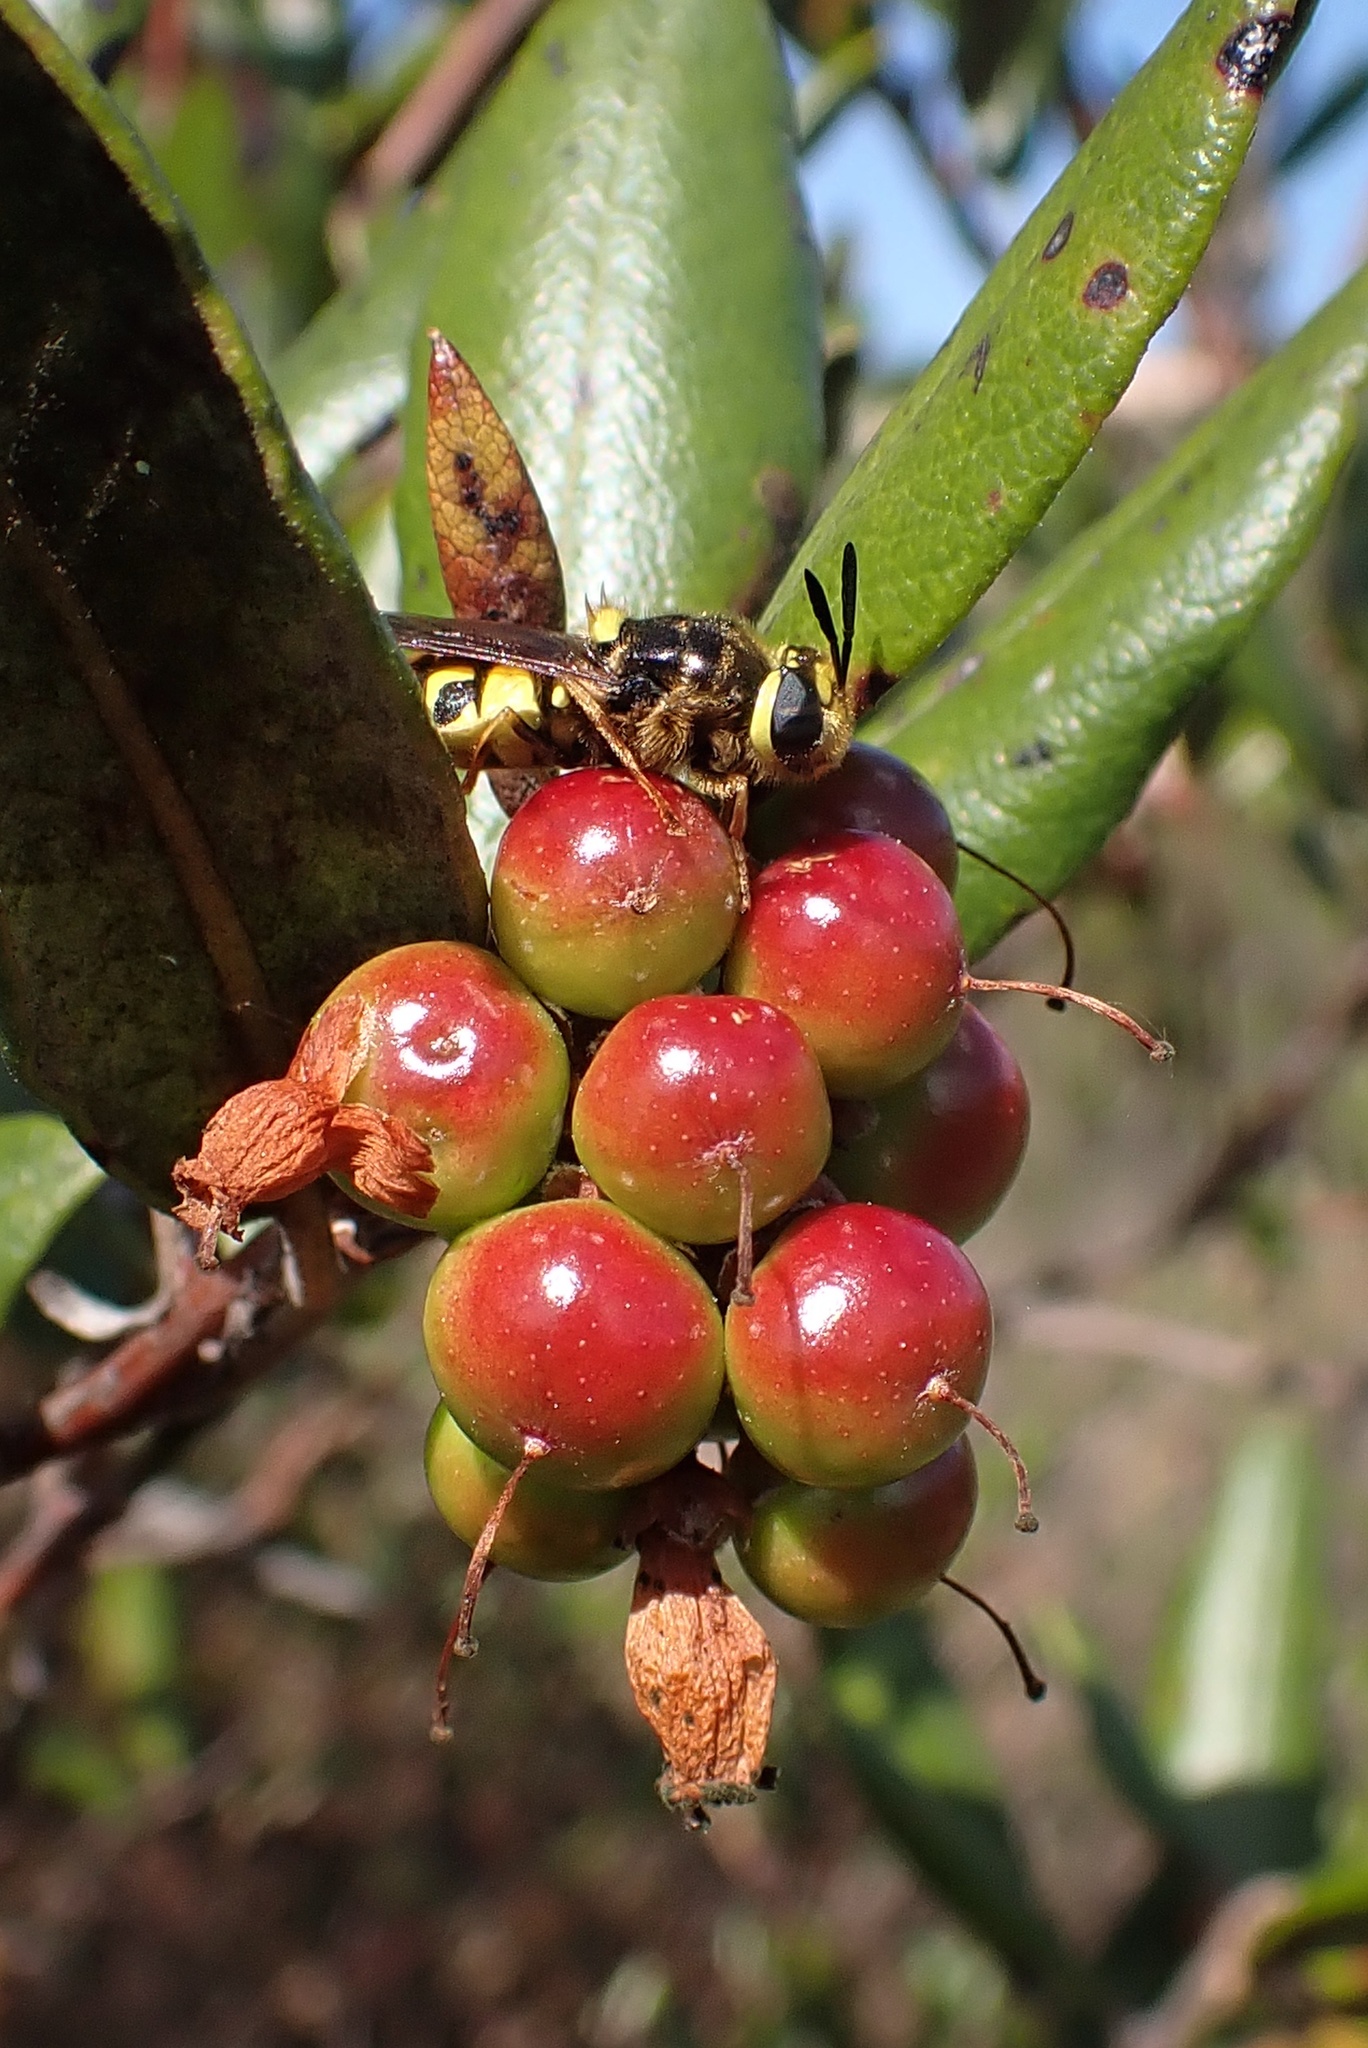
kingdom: Animalia
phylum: Arthropoda
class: Insecta
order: Diptera
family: Stratiomyidae
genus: Stratiomys
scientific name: Stratiomys maculosa
